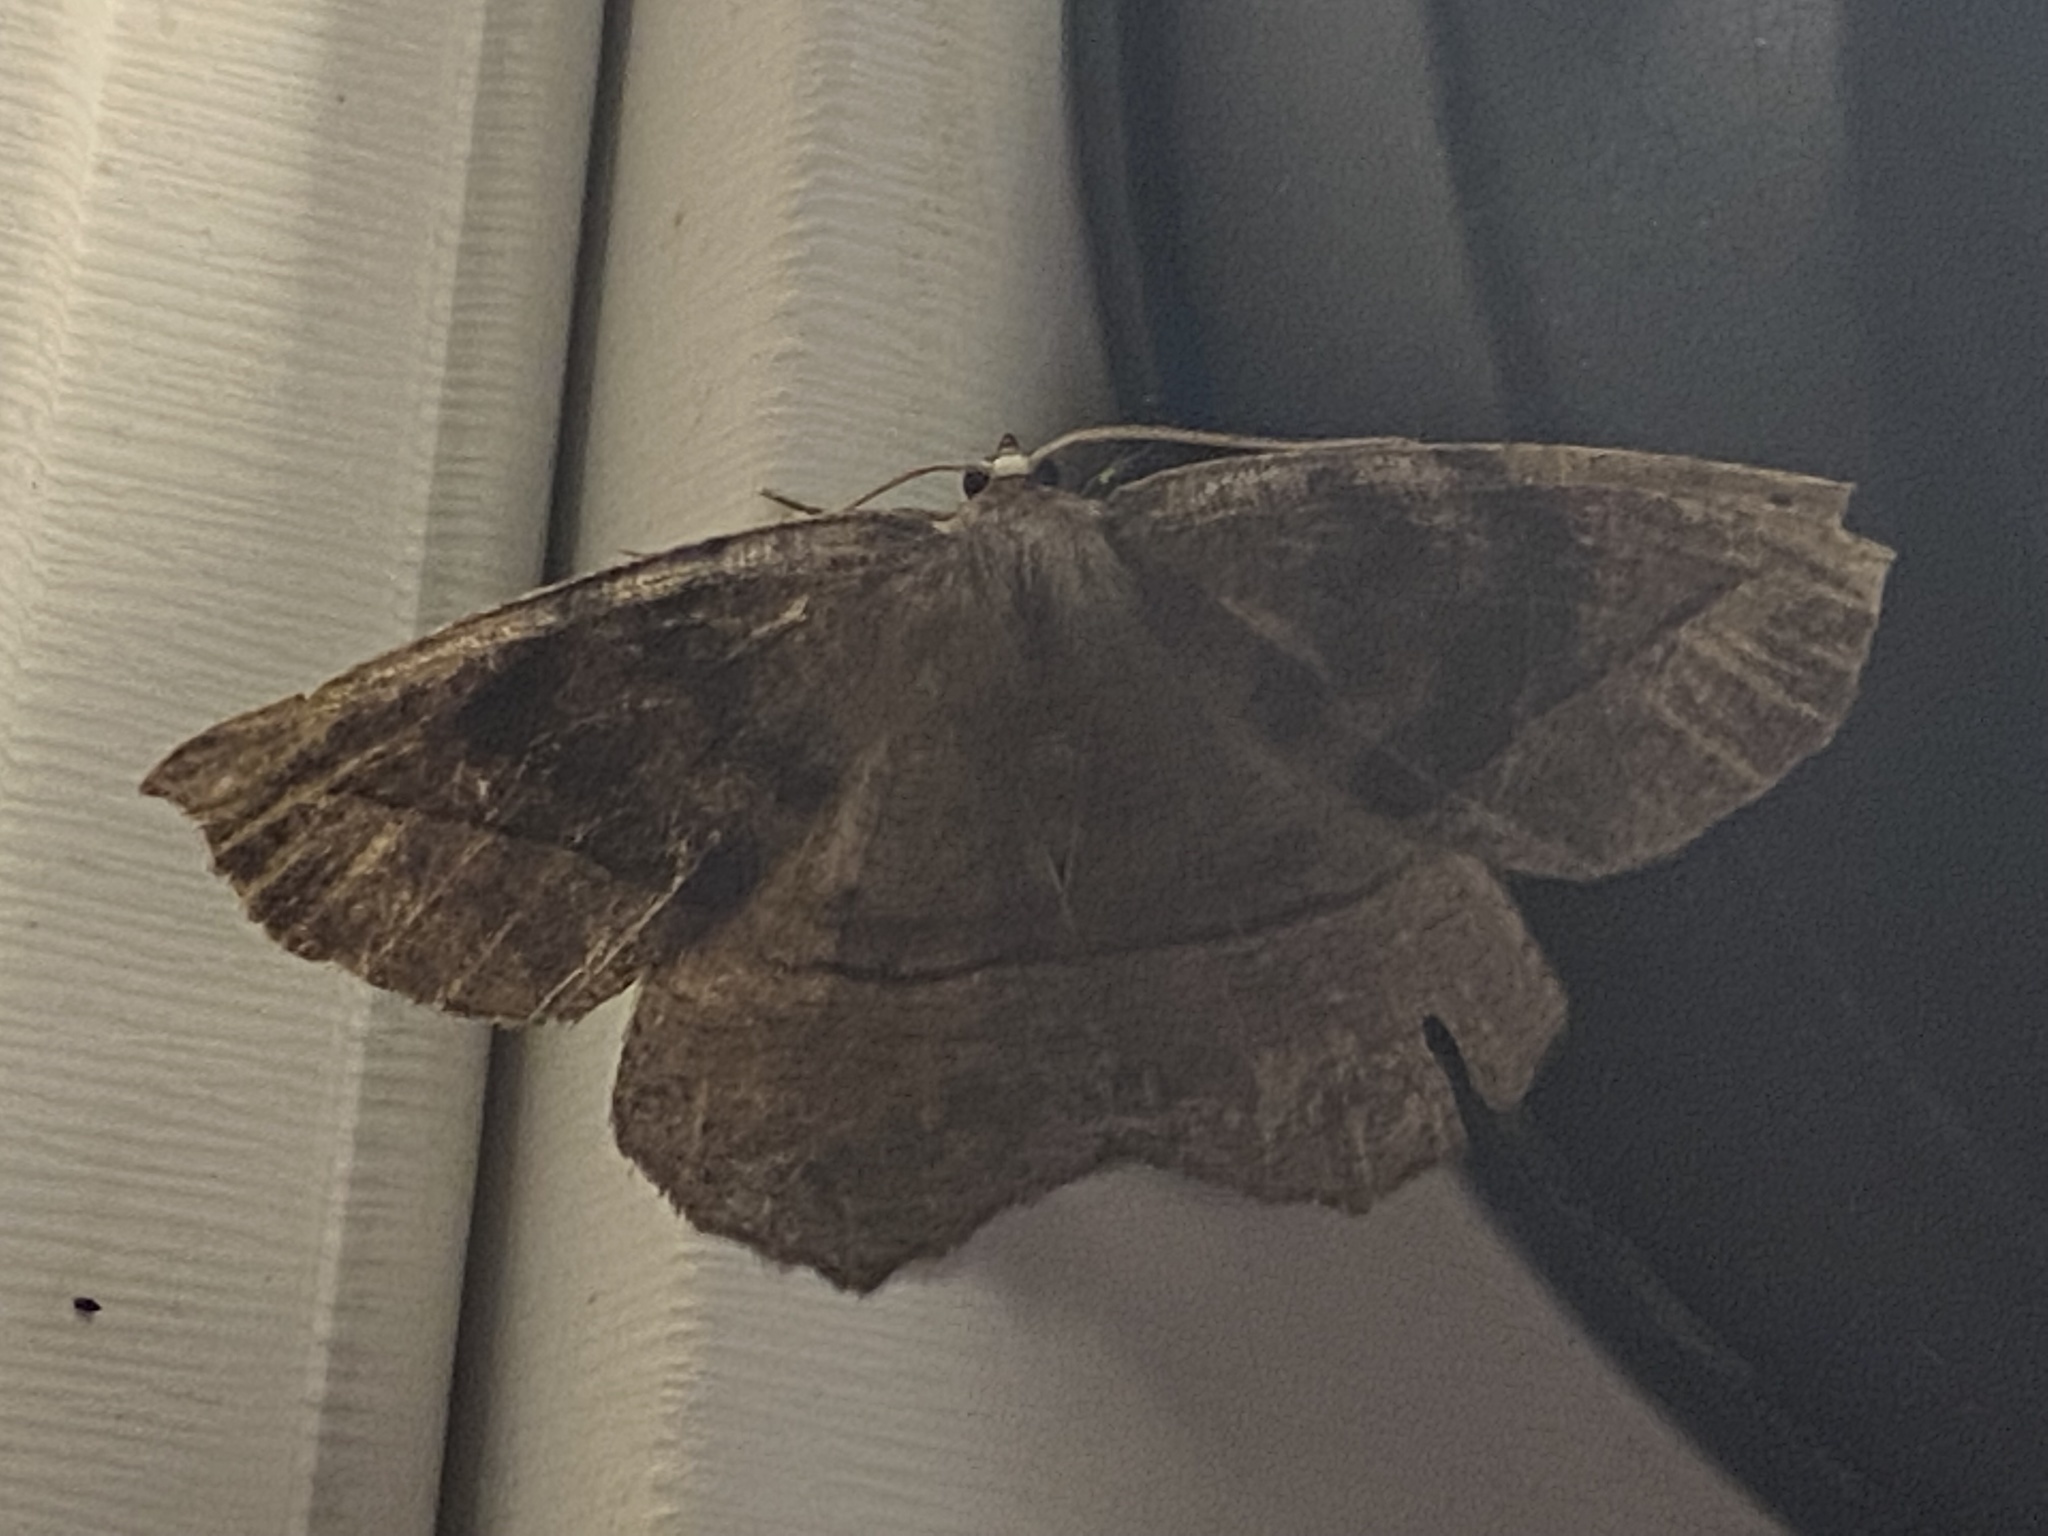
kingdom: Animalia
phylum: Arthropoda
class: Insecta
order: Lepidoptera
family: Geometridae
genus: Eutrapela
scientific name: Eutrapela clemataria
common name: Curved-toothed geometer
